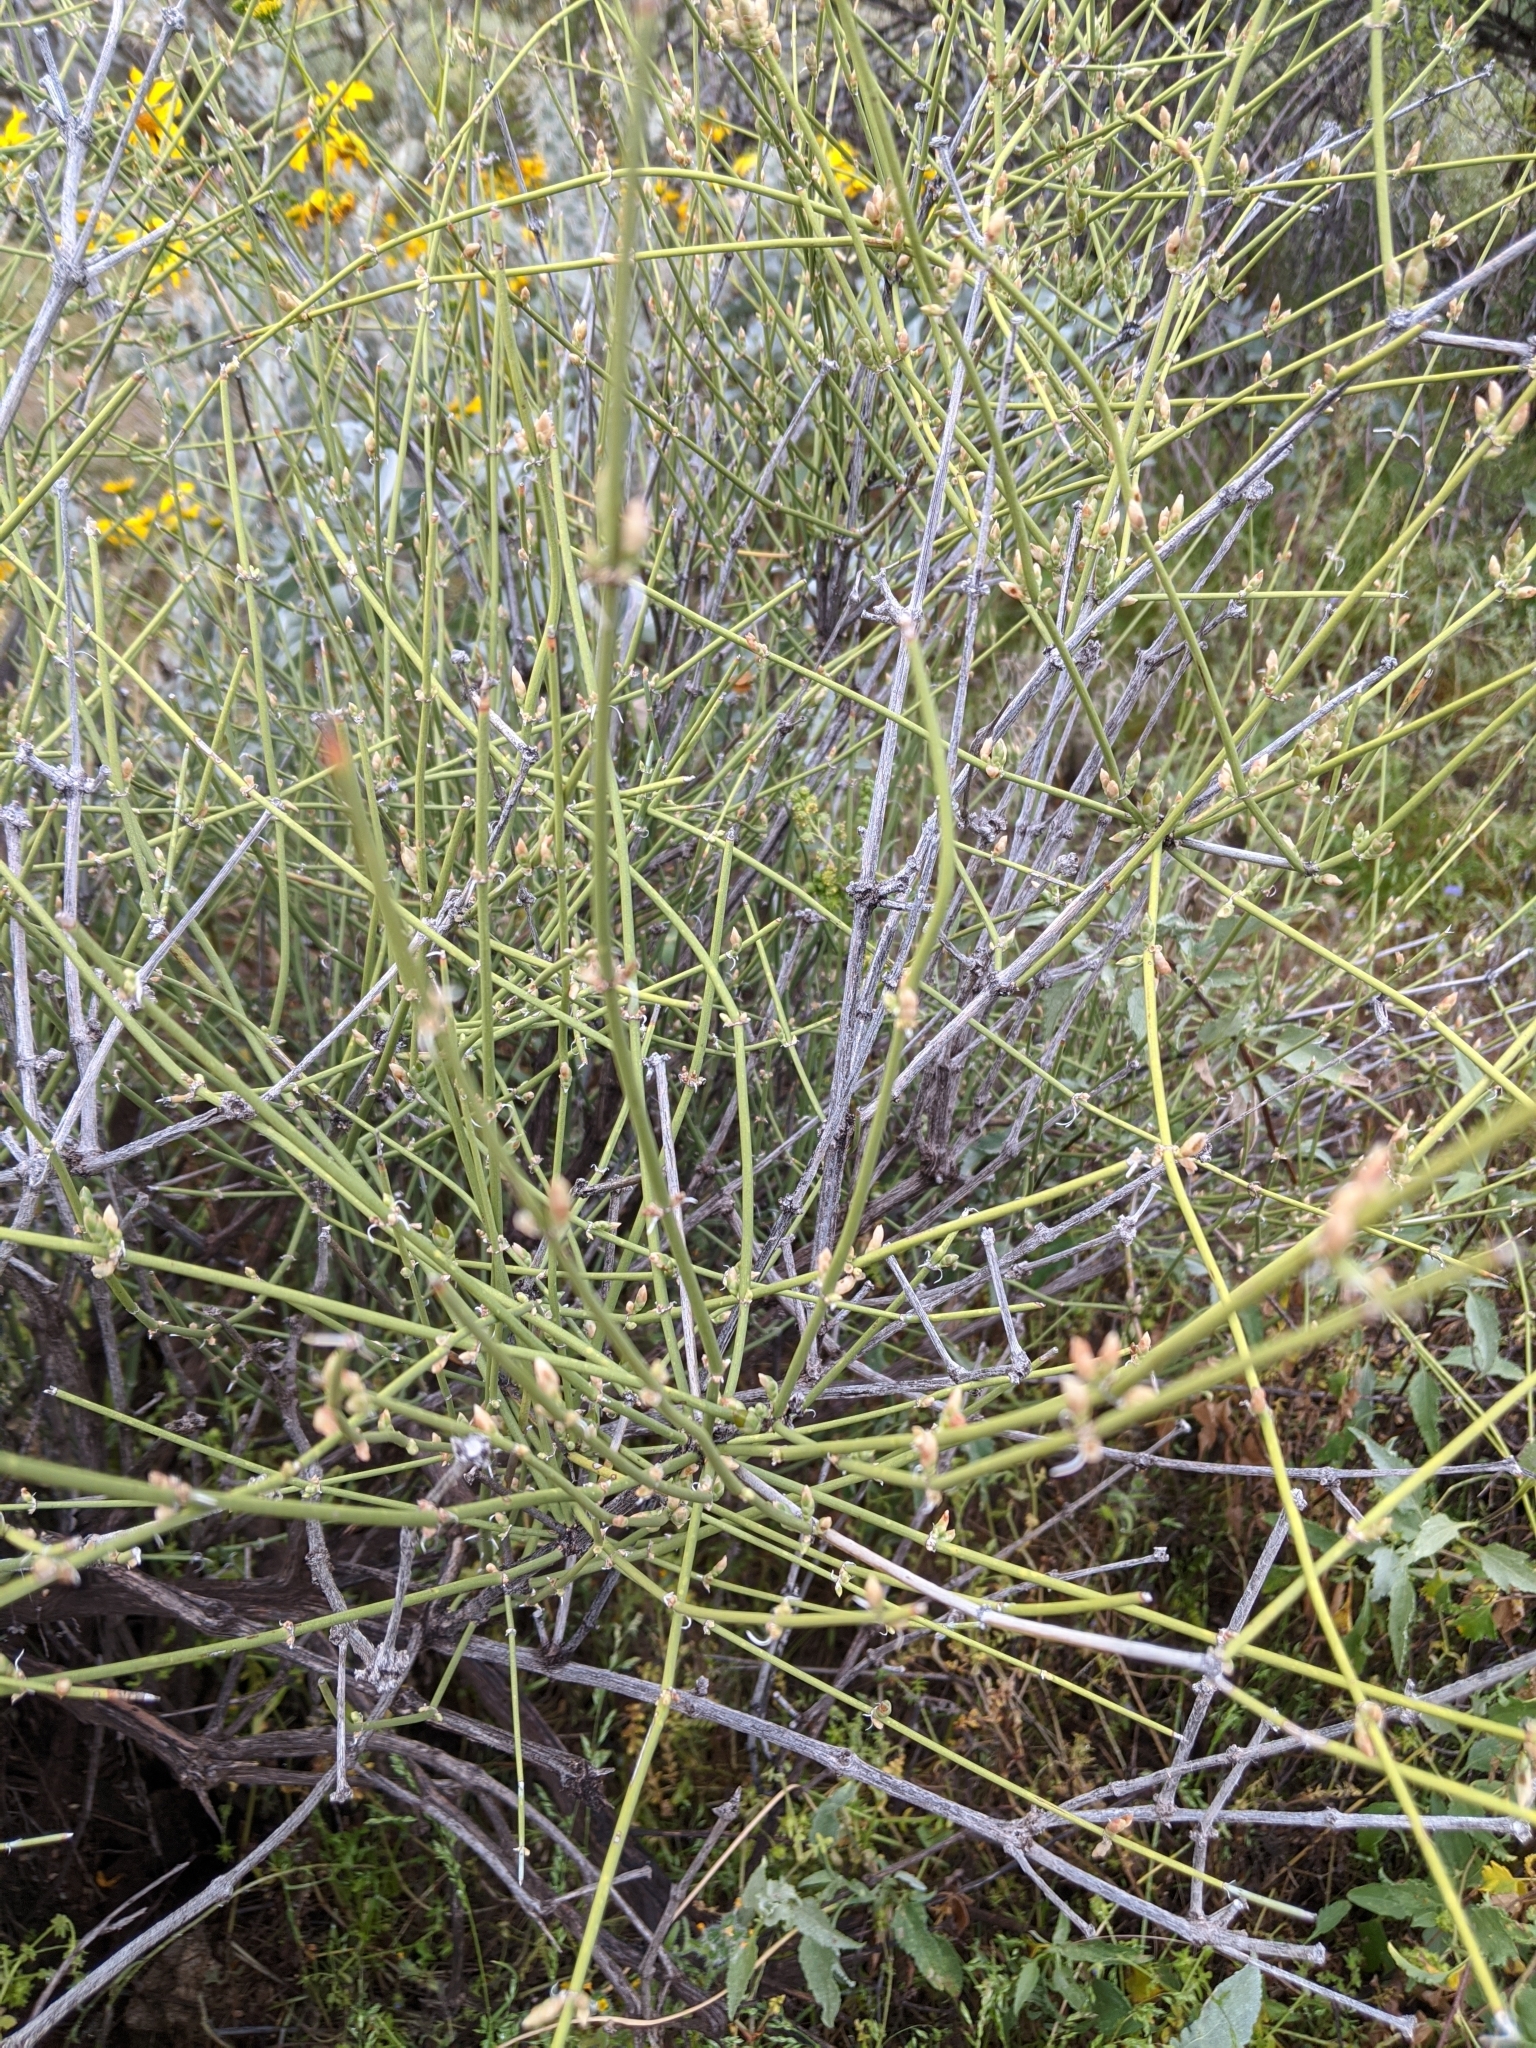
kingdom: Plantae
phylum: Tracheophyta
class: Gnetopsida
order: Ephedrales
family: Ephedraceae
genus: Ephedra
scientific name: Ephedra
